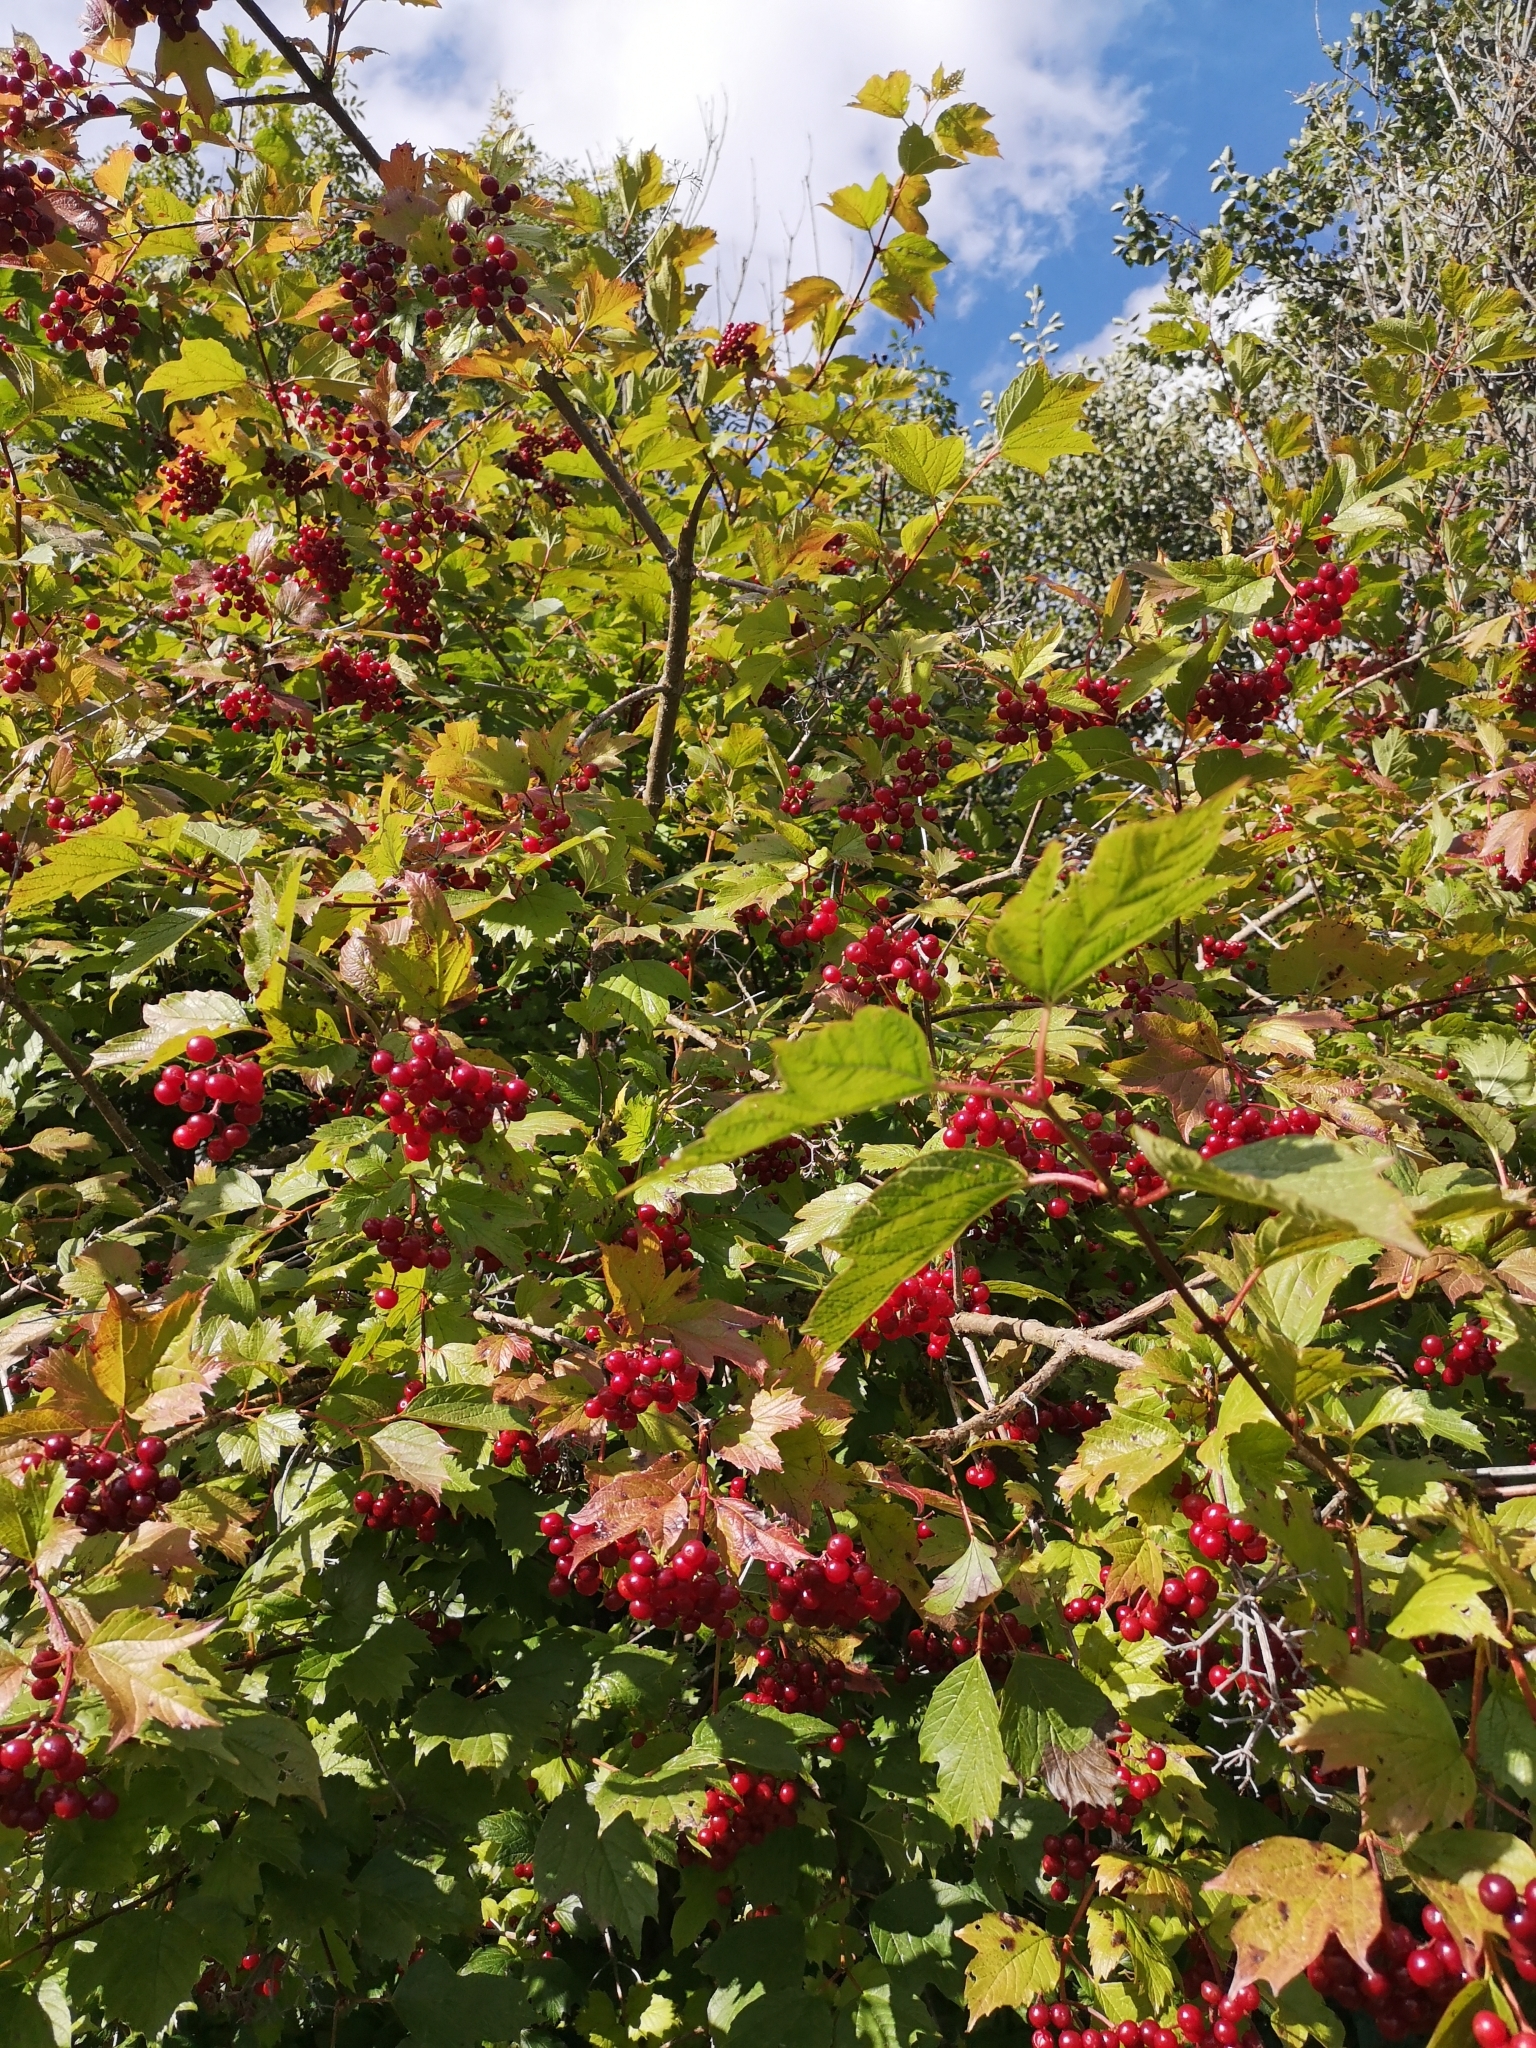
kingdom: Plantae
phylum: Tracheophyta
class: Magnoliopsida
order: Dipsacales
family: Viburnaceae
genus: Viburnum
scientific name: Viburnum opulus
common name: Guelder-rose
